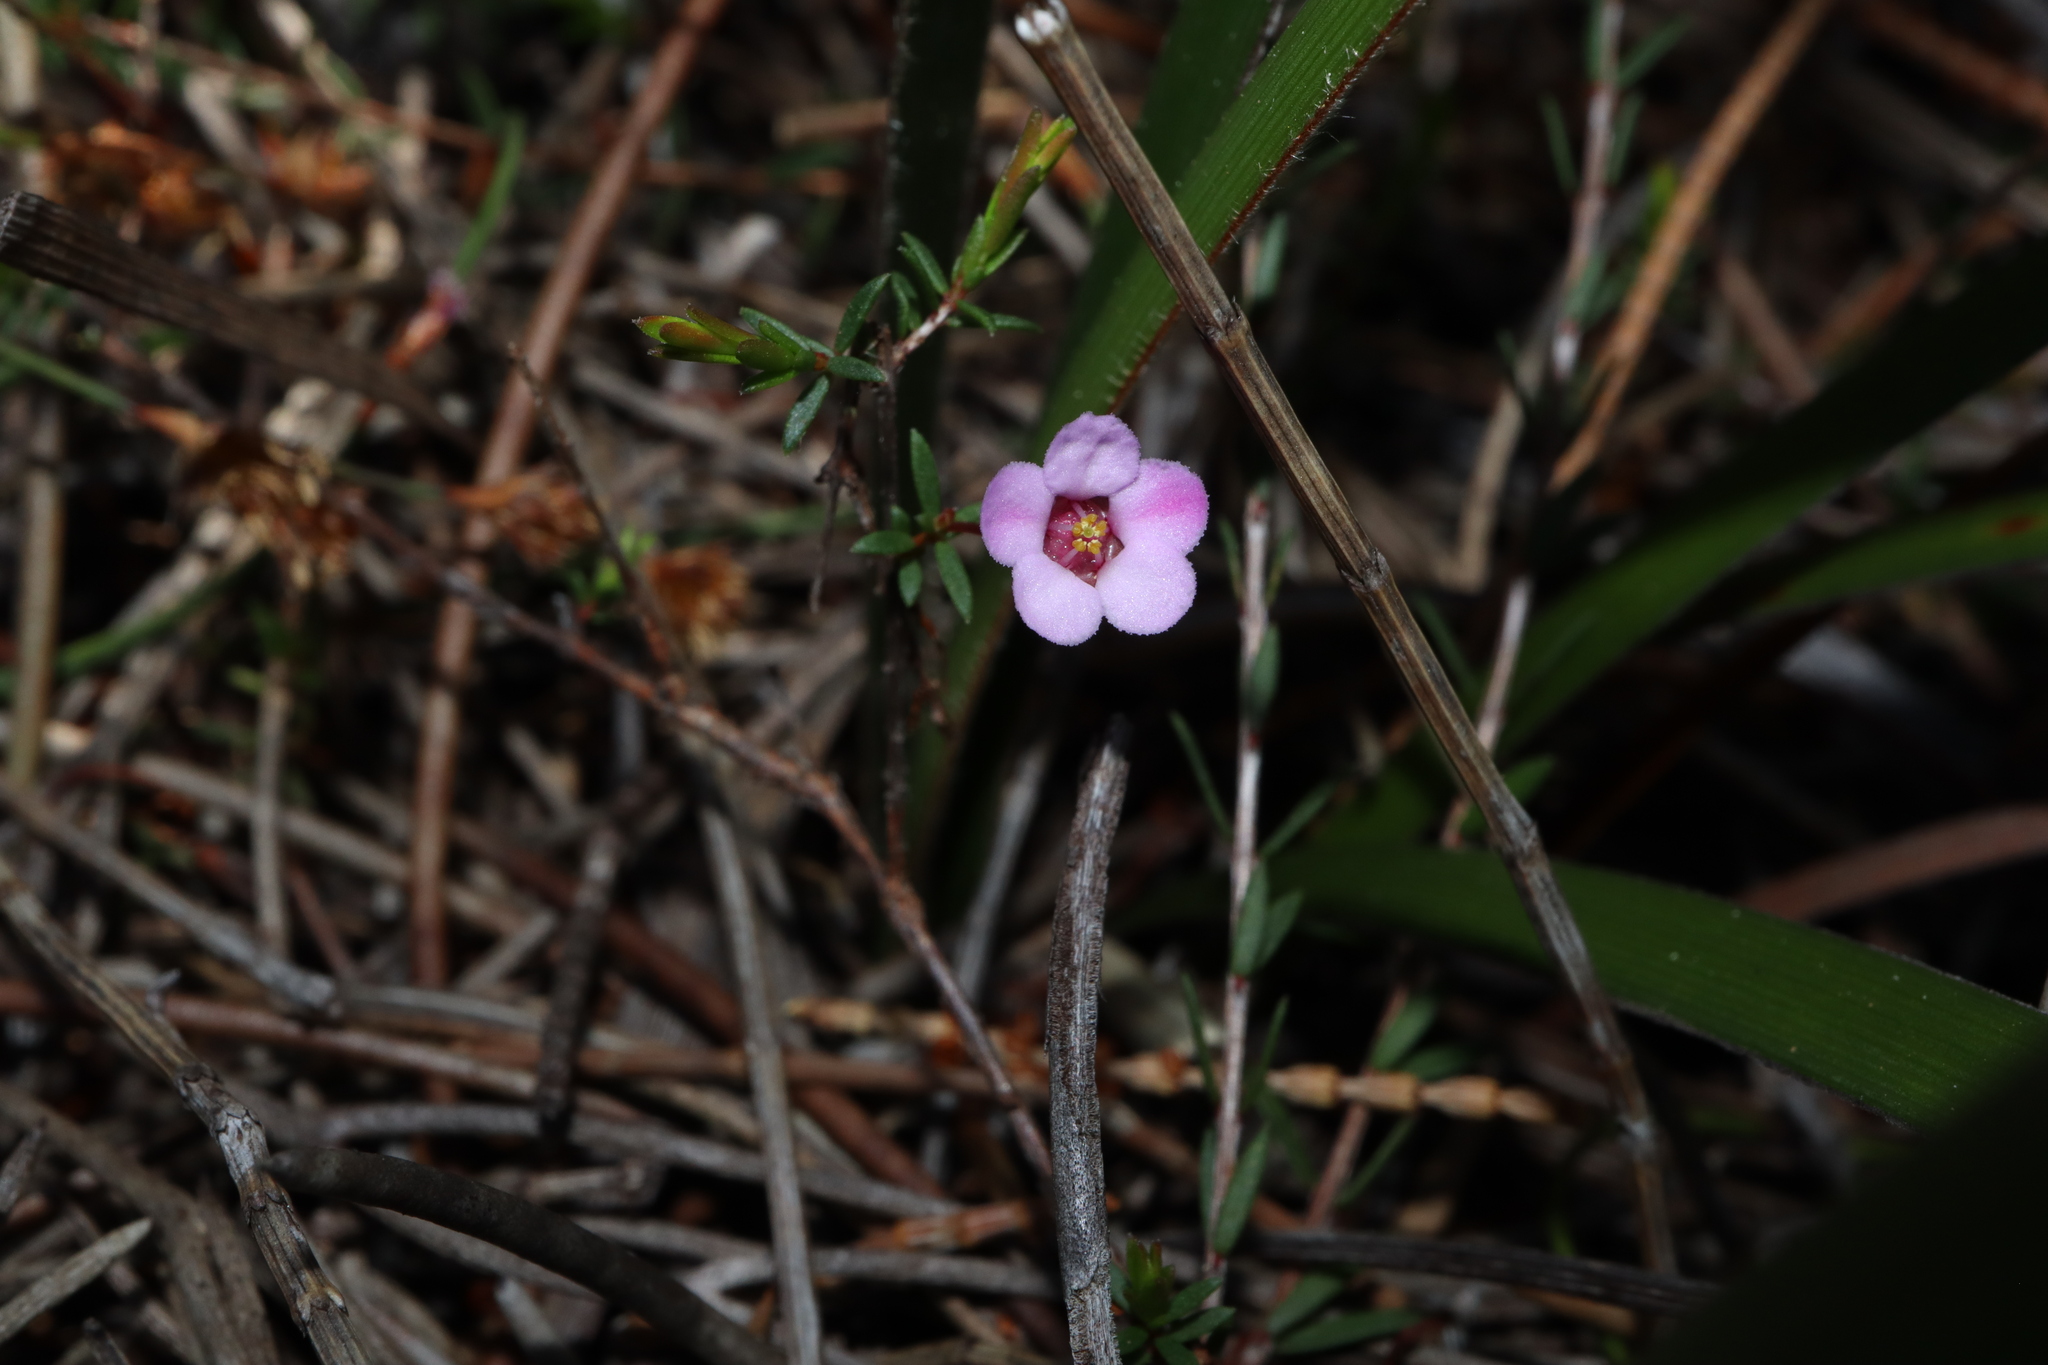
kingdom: Plantae
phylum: Tracheophyta
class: Magnoliopsida
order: Myrtales
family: Myrtaceae
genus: Euryomyrtus
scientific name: Euryomyrtus ramosissima
